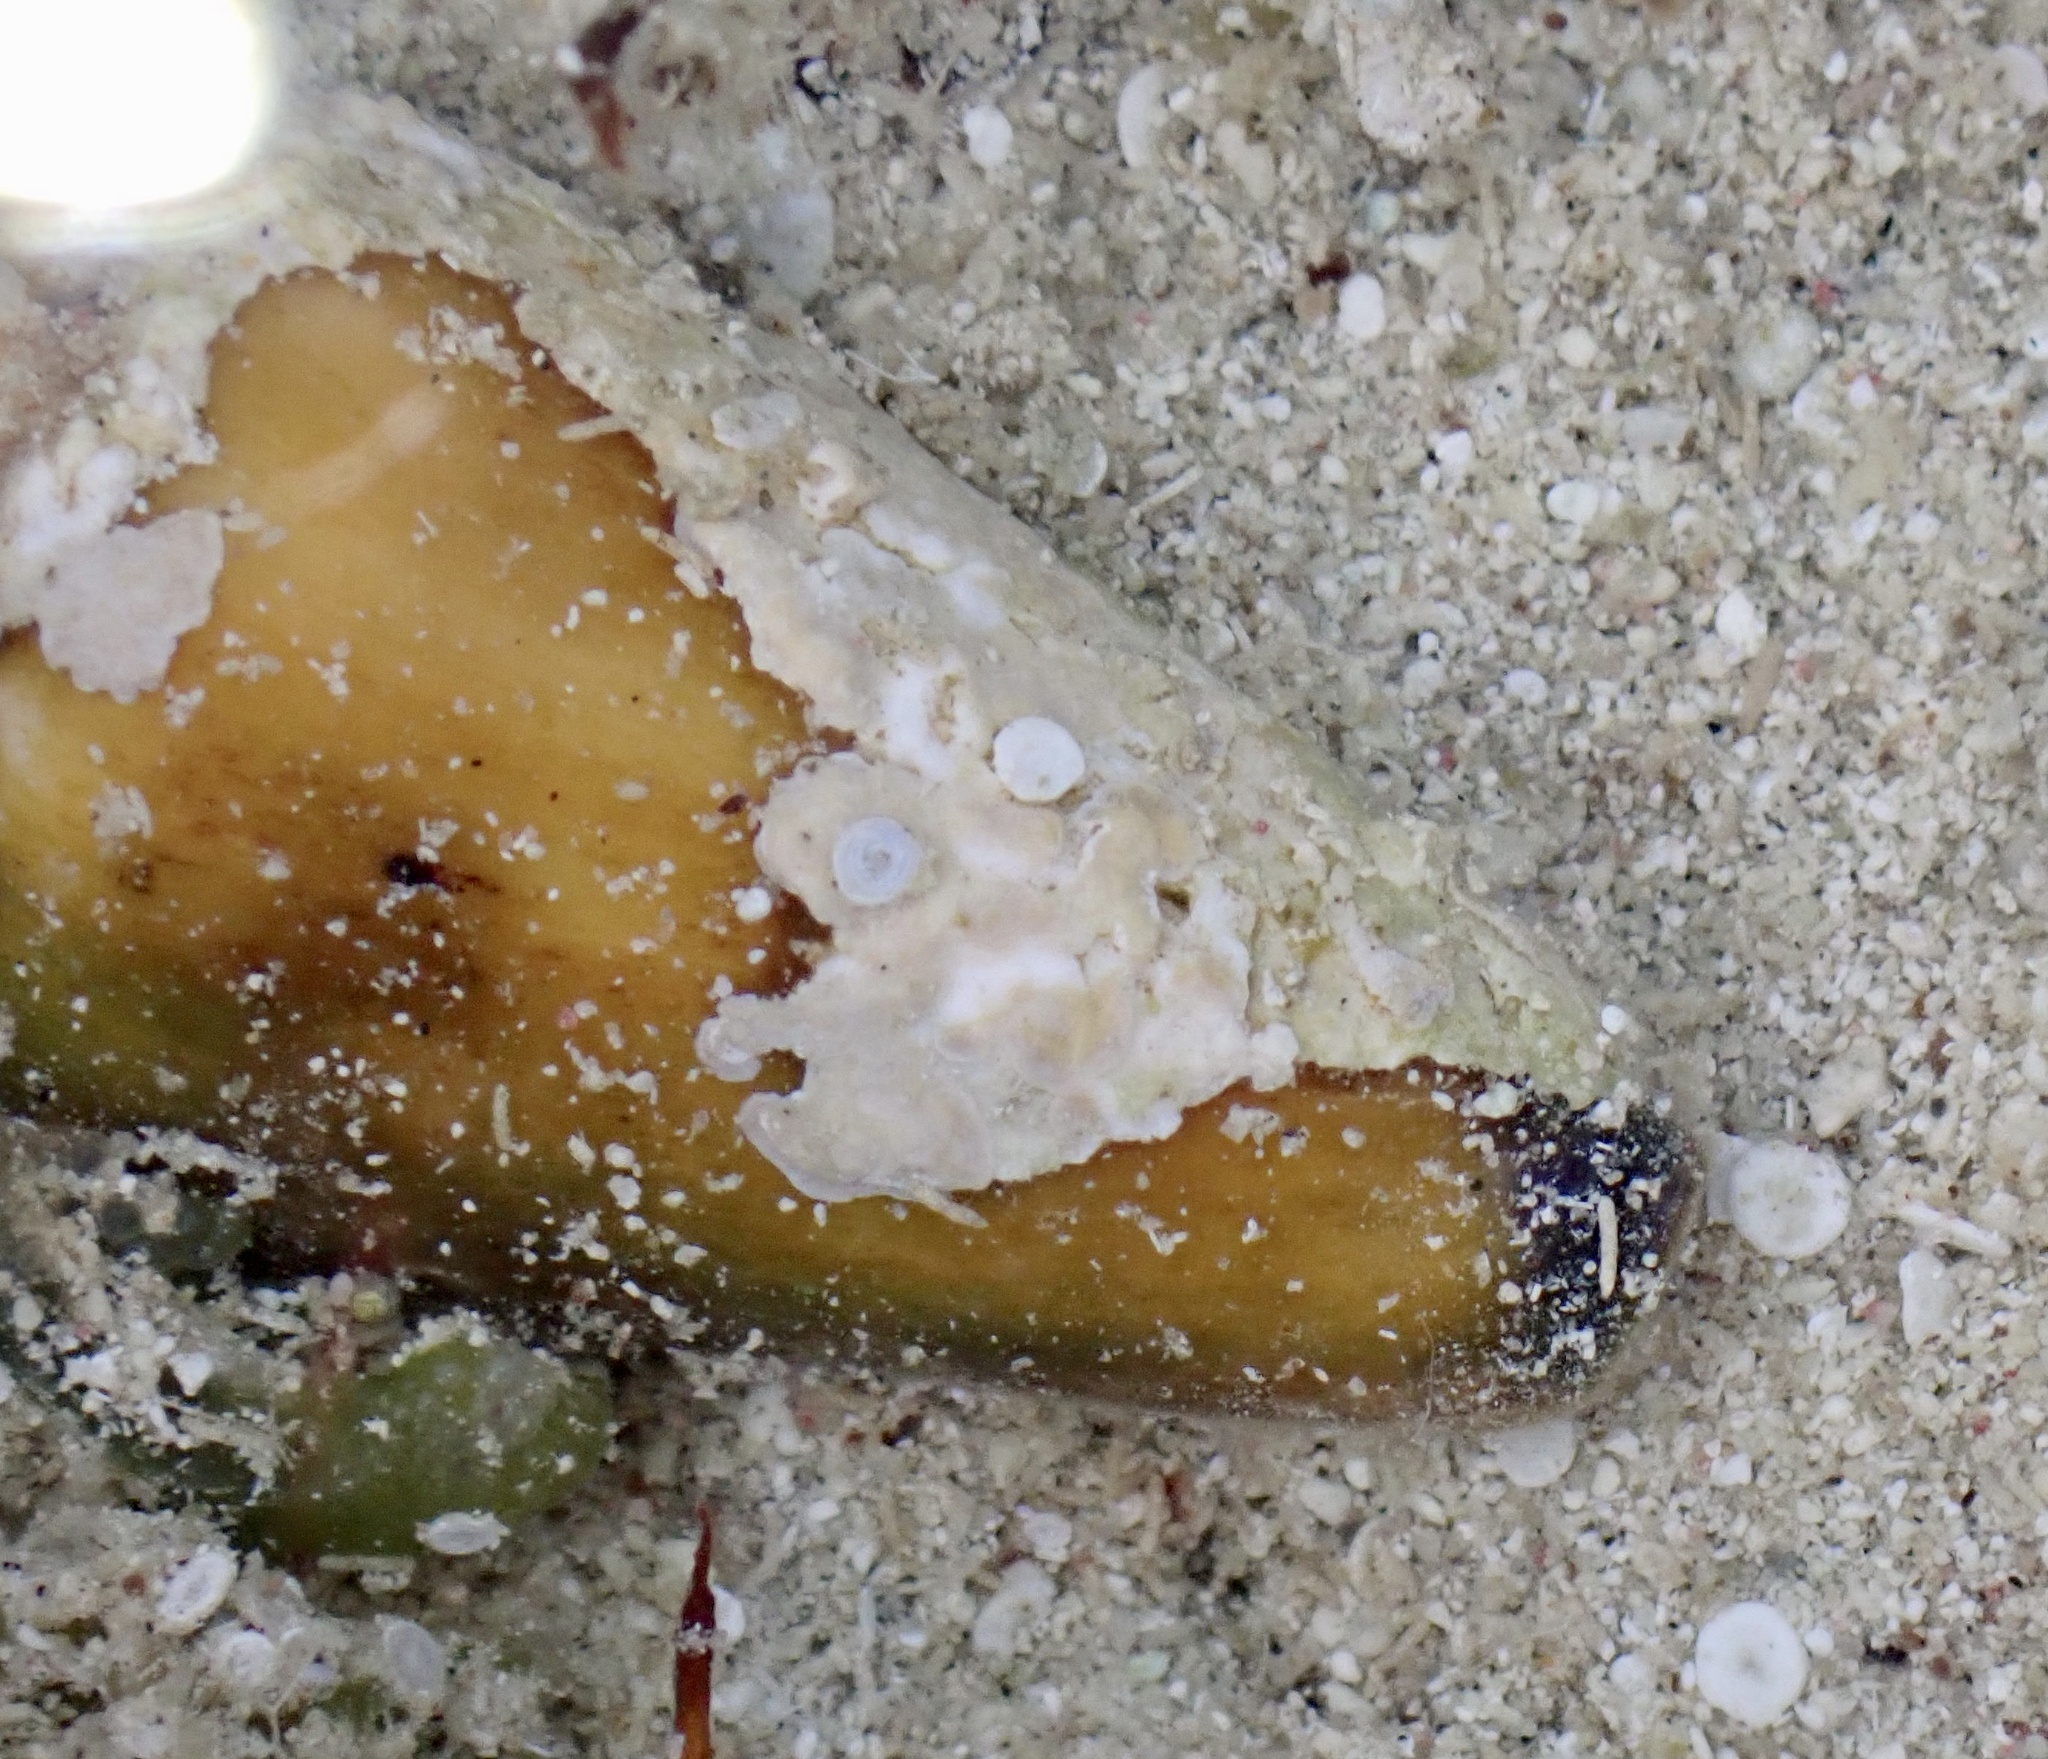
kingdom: Animalia
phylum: Mollusca
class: Gastropoda
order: Neogastropoda
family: Conidae
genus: Conus
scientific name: Conus virgo
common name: Virgin cone
